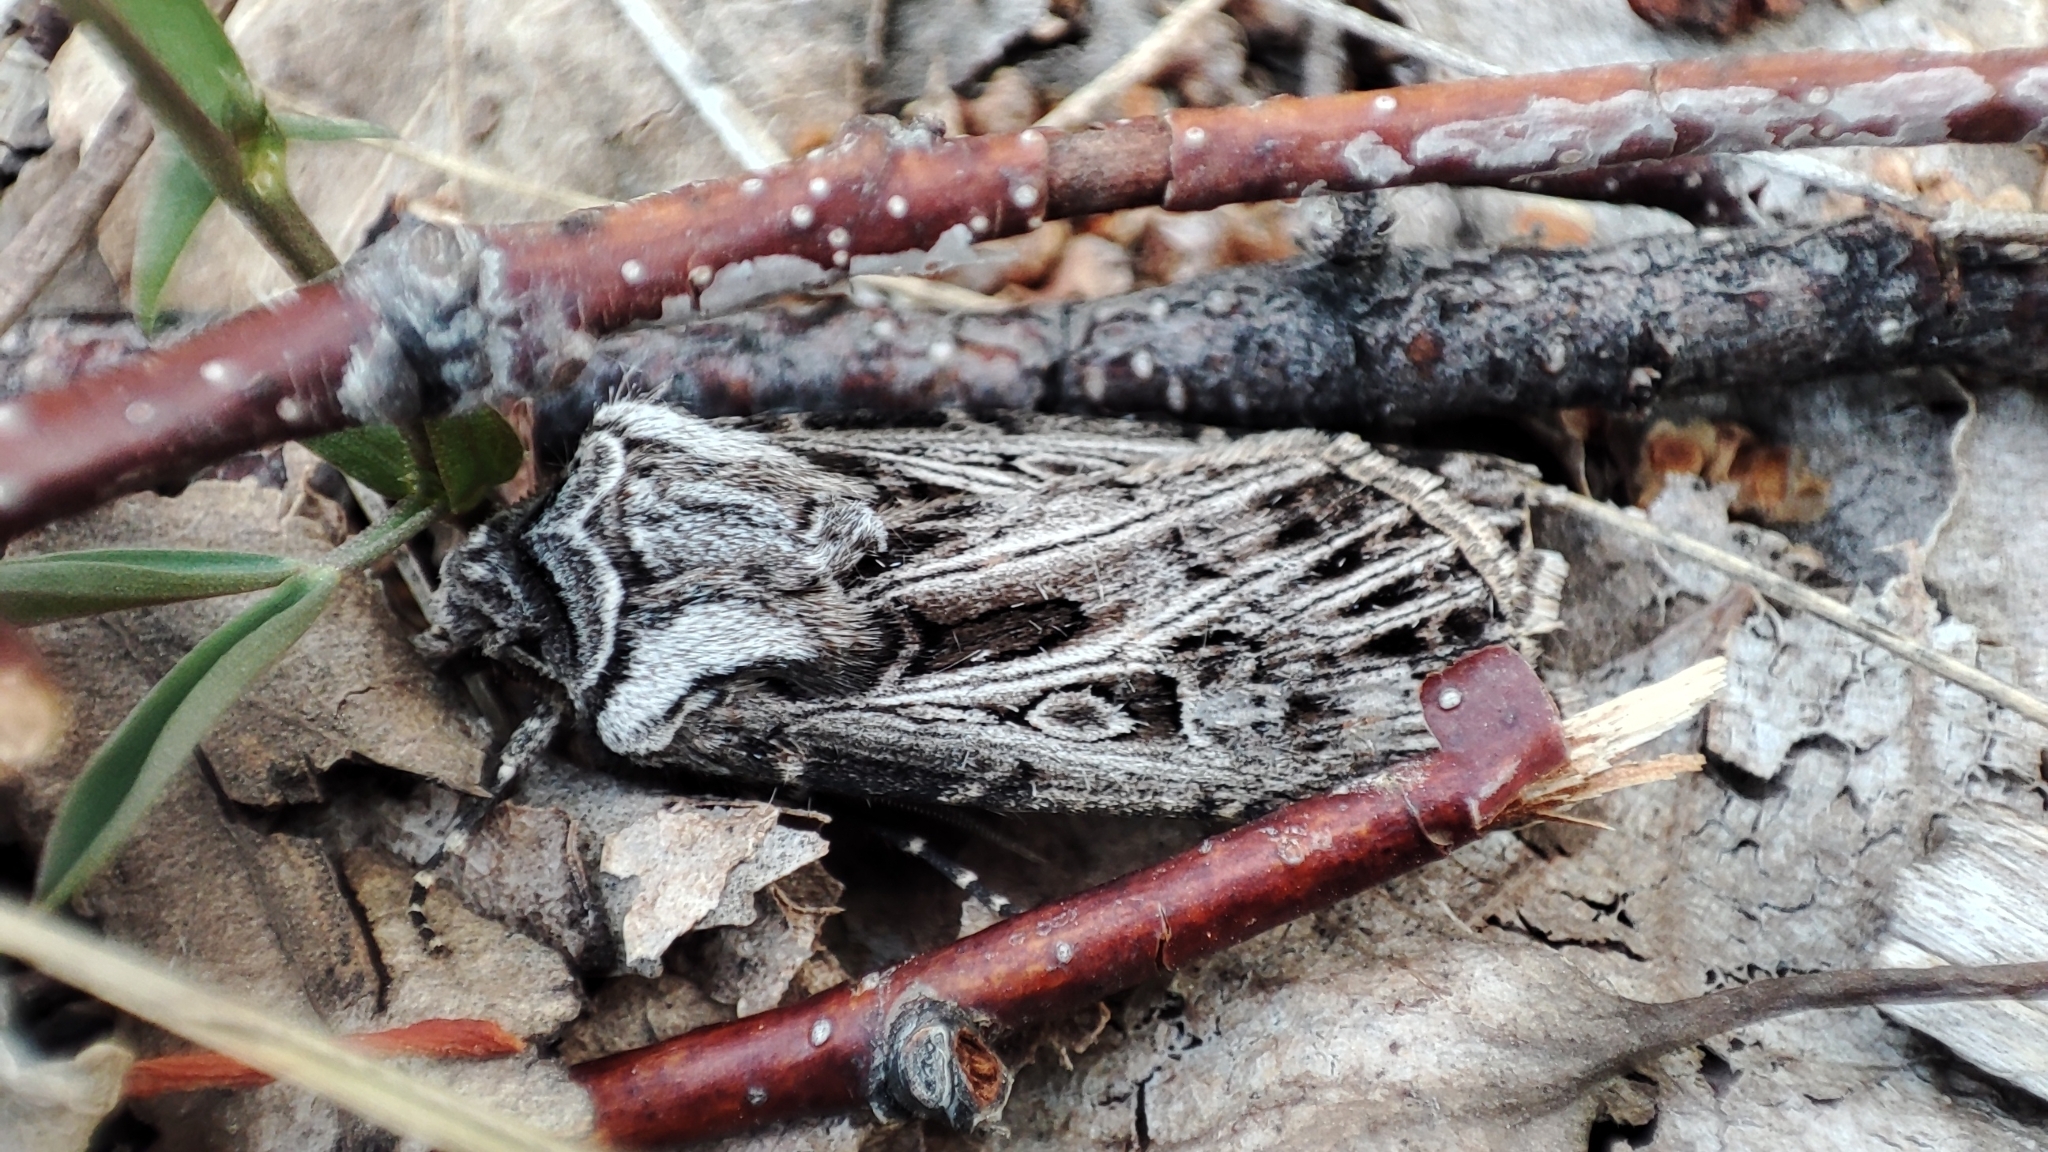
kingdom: Animalia
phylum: Arthropoda
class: Insecta
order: Lepidoptera
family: Noctuidae
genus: Agrotis
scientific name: Agrotis vestigialis
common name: Archer's dart
